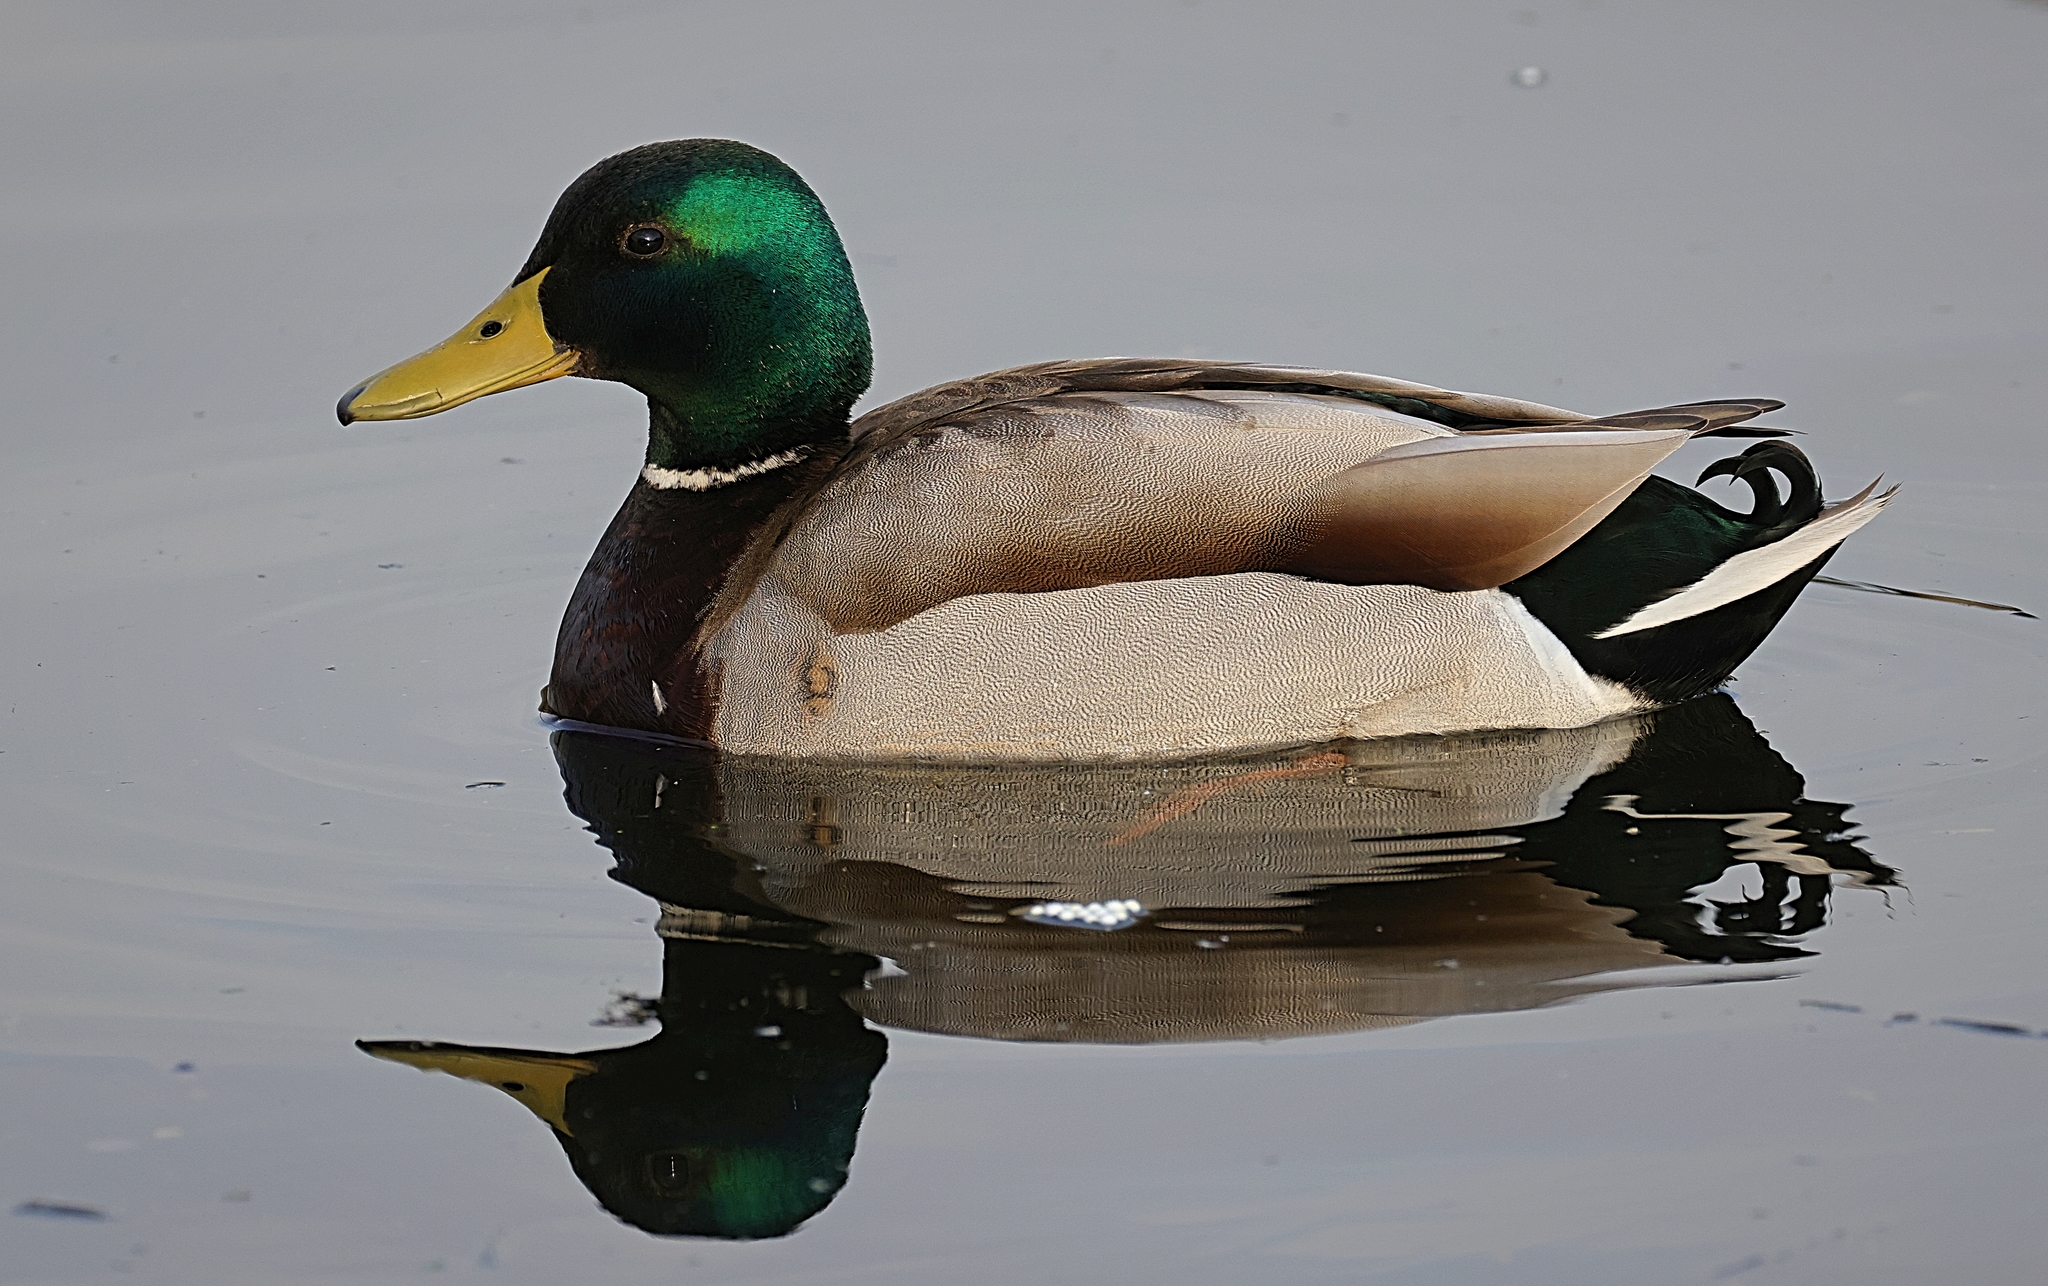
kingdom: Animalia
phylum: Chordata
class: Aves
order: Anseriformes
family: Anatidae
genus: Anas
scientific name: Anas platyrhynchos
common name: Mallard
